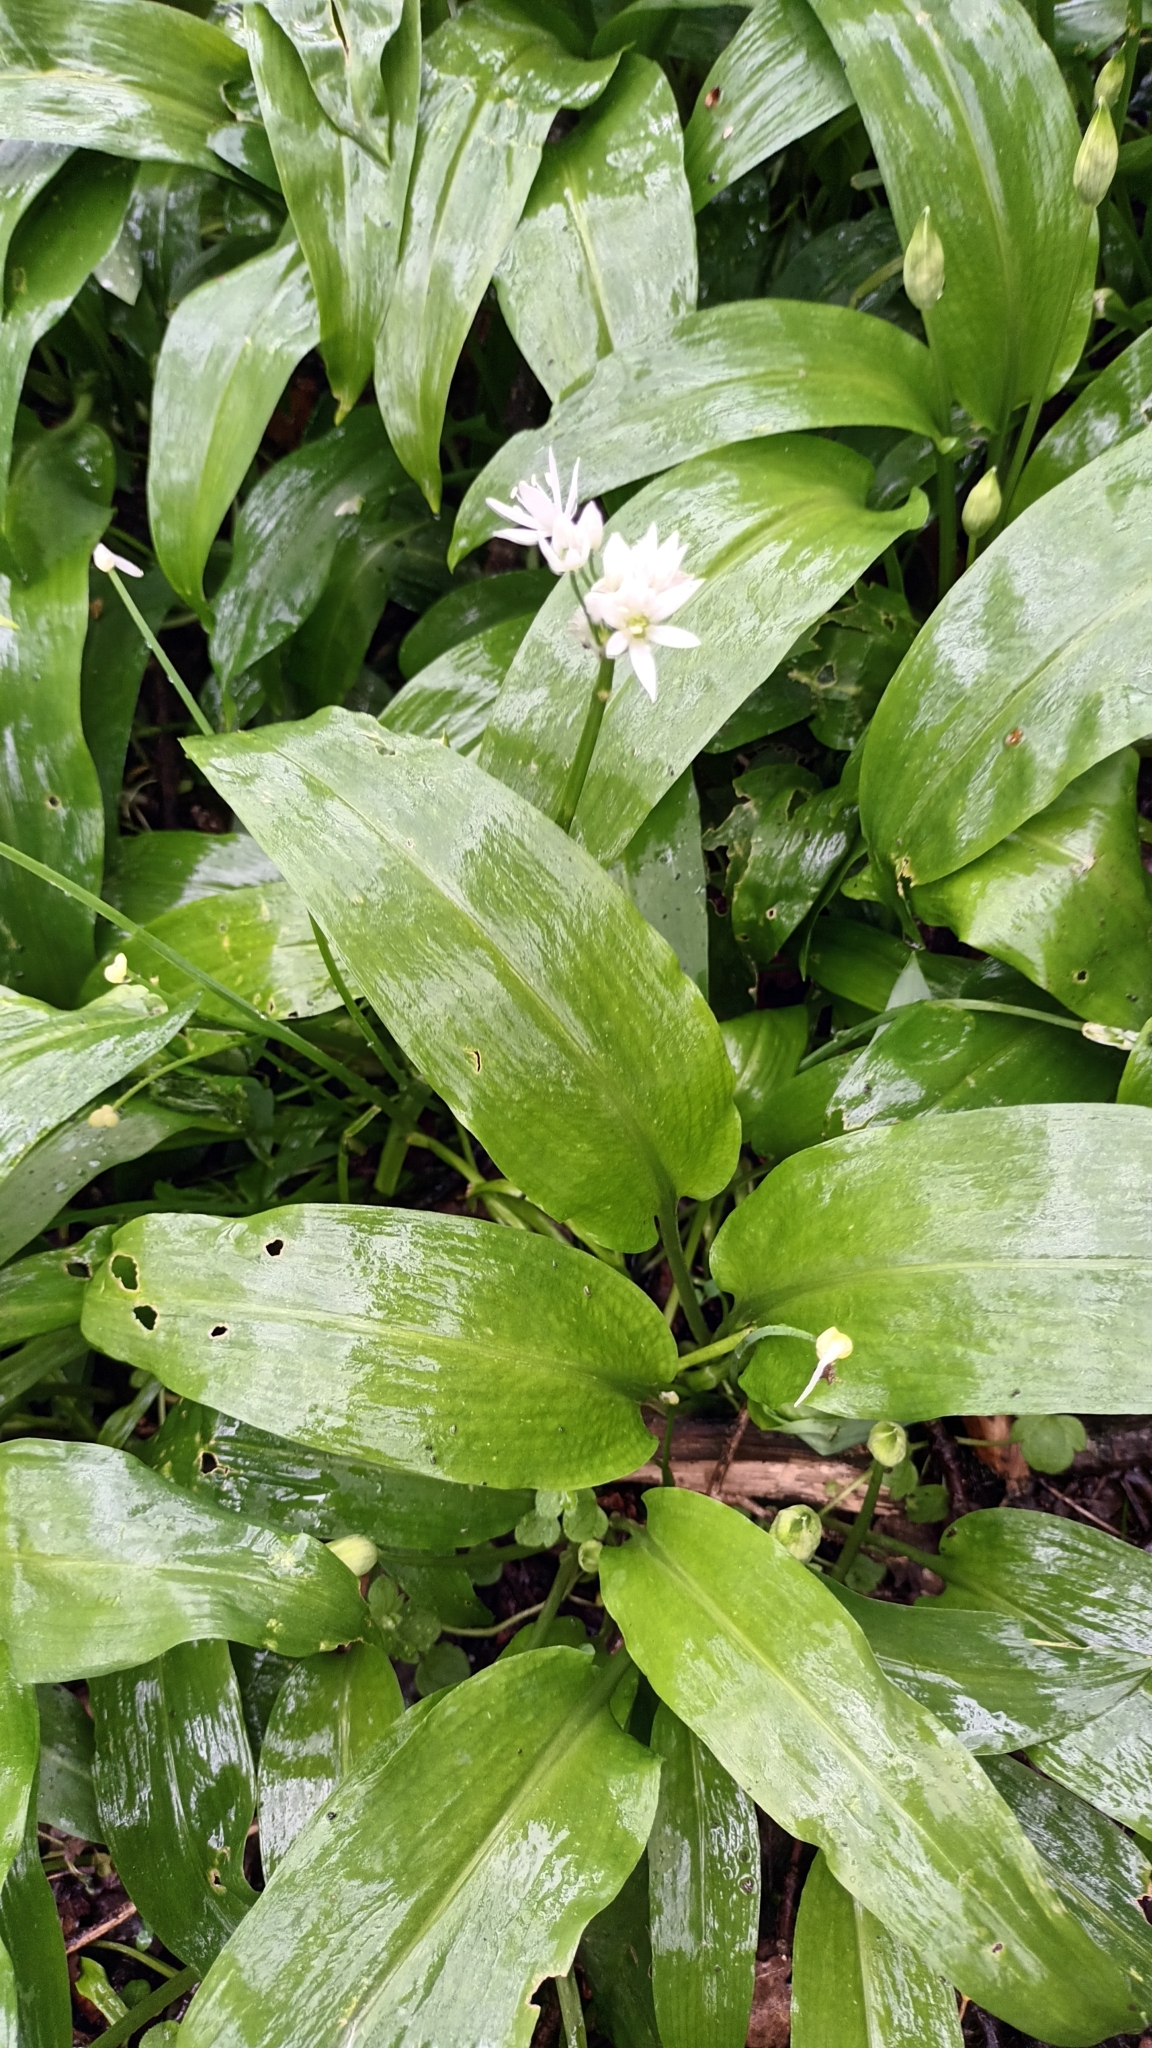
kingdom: Plantae
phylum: Tracheophyta
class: Liliopsida
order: Asparagales
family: Amaryllidaceae
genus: Allium
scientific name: Allium ursinum
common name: Ramsons
